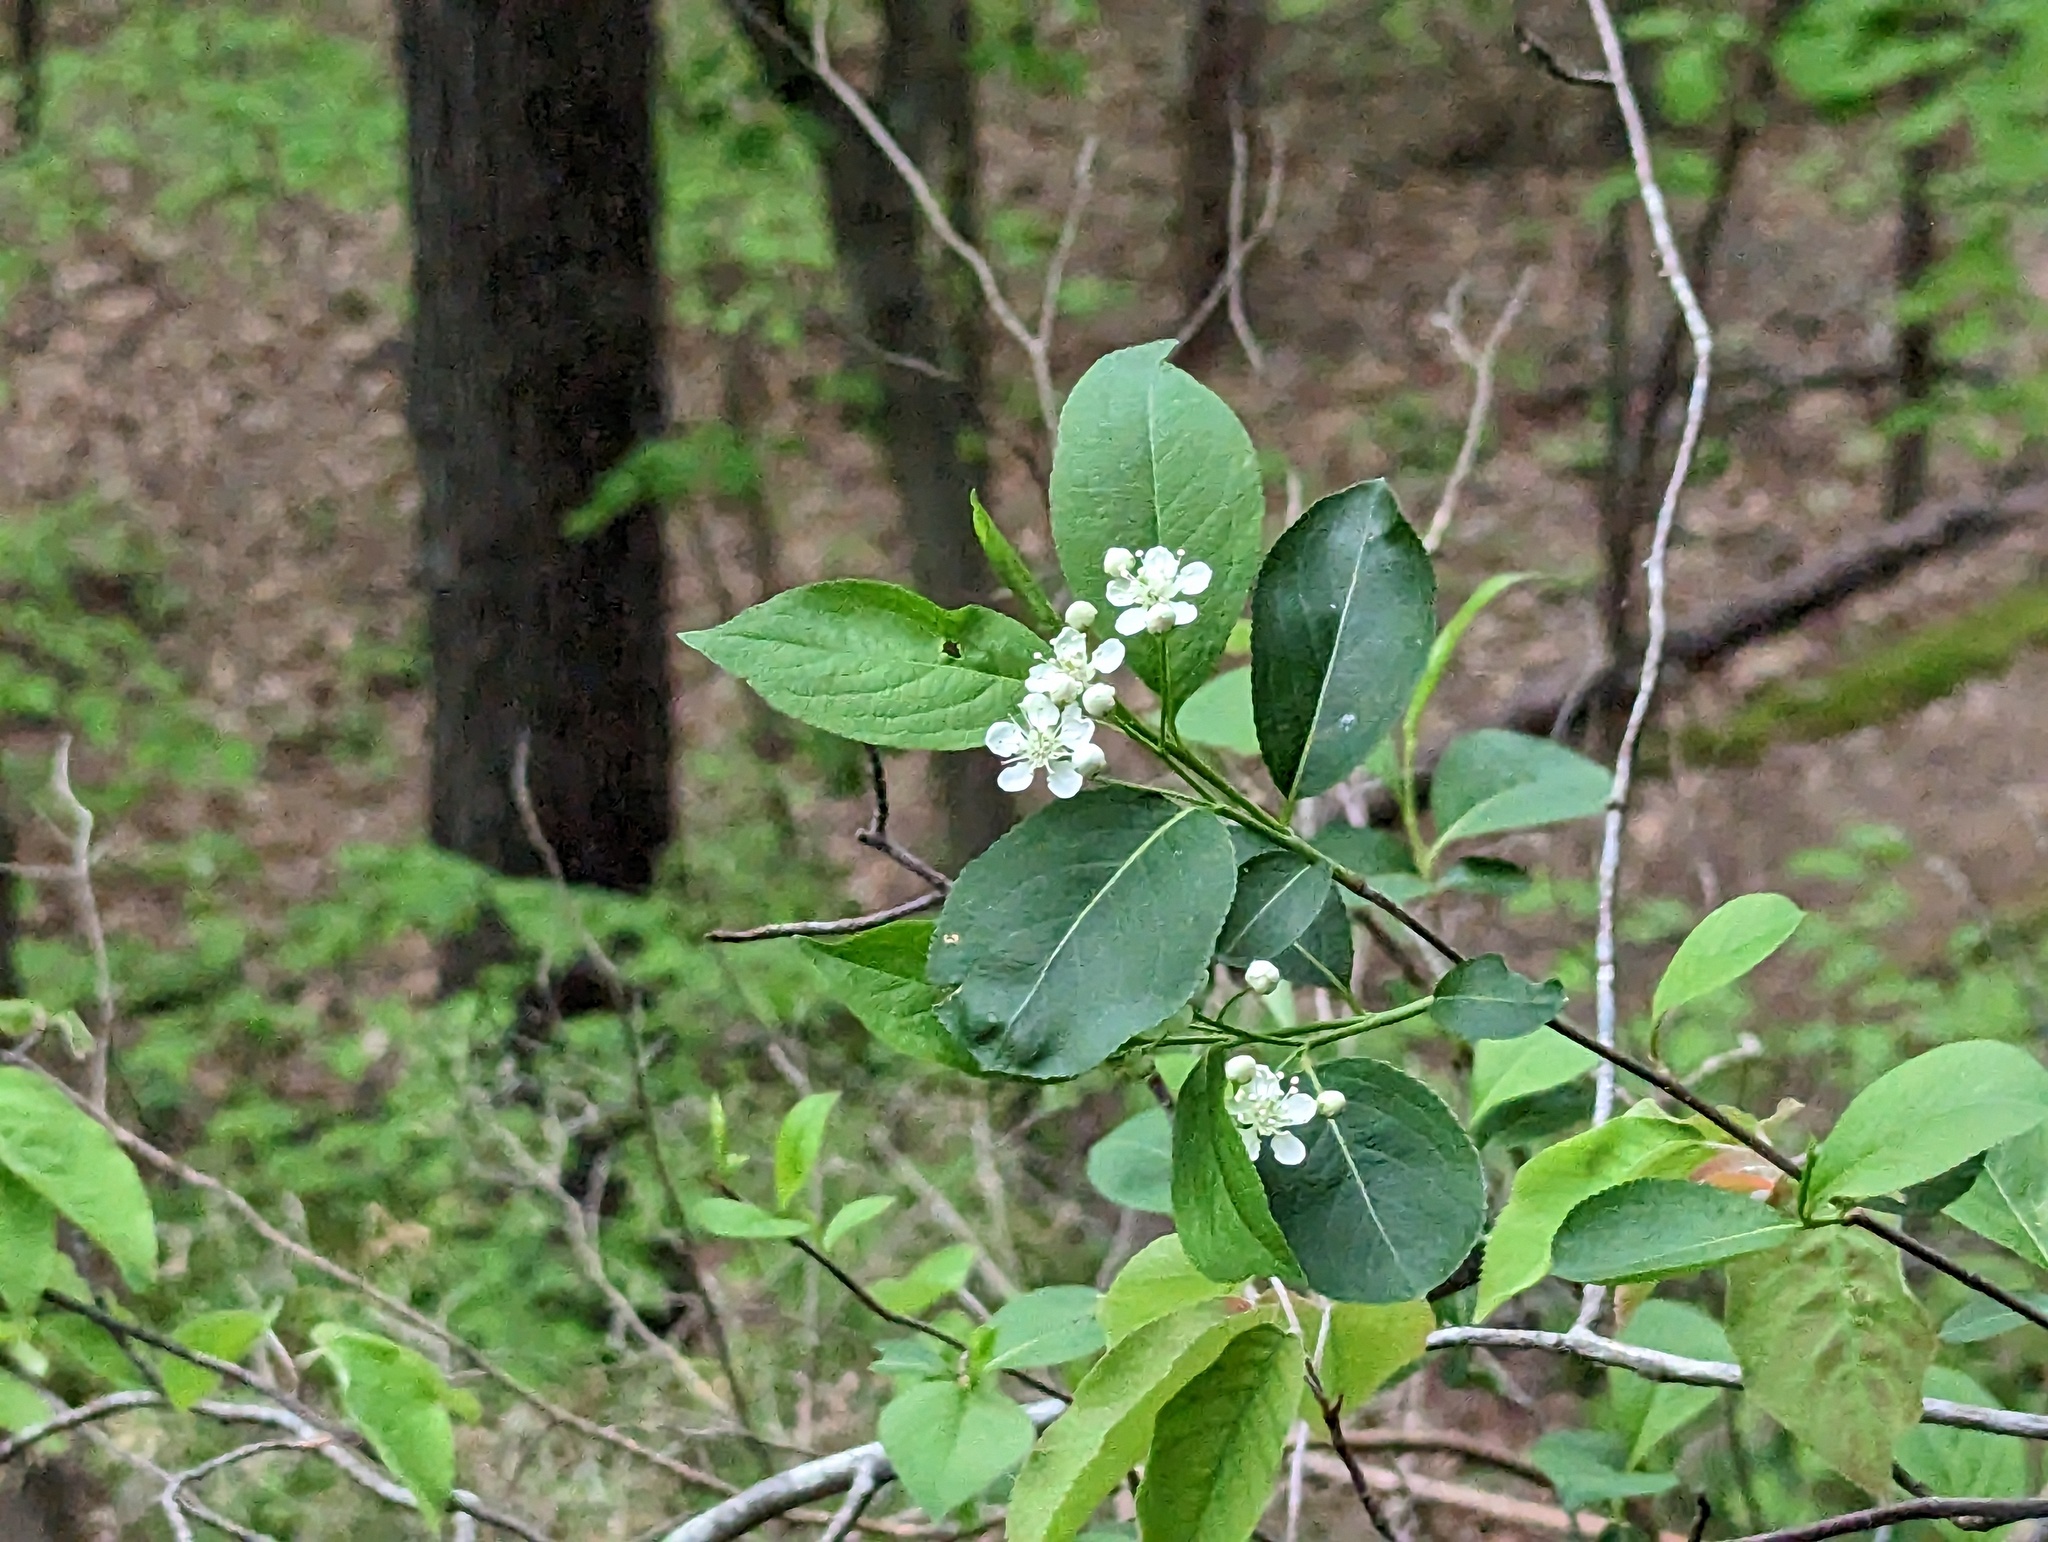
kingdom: Plantae
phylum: Tracheophyta
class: Magnoliopsida
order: Rosales
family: Rosaceae
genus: Aronia
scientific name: Aronia melanocarpa
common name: Black chokeberry
